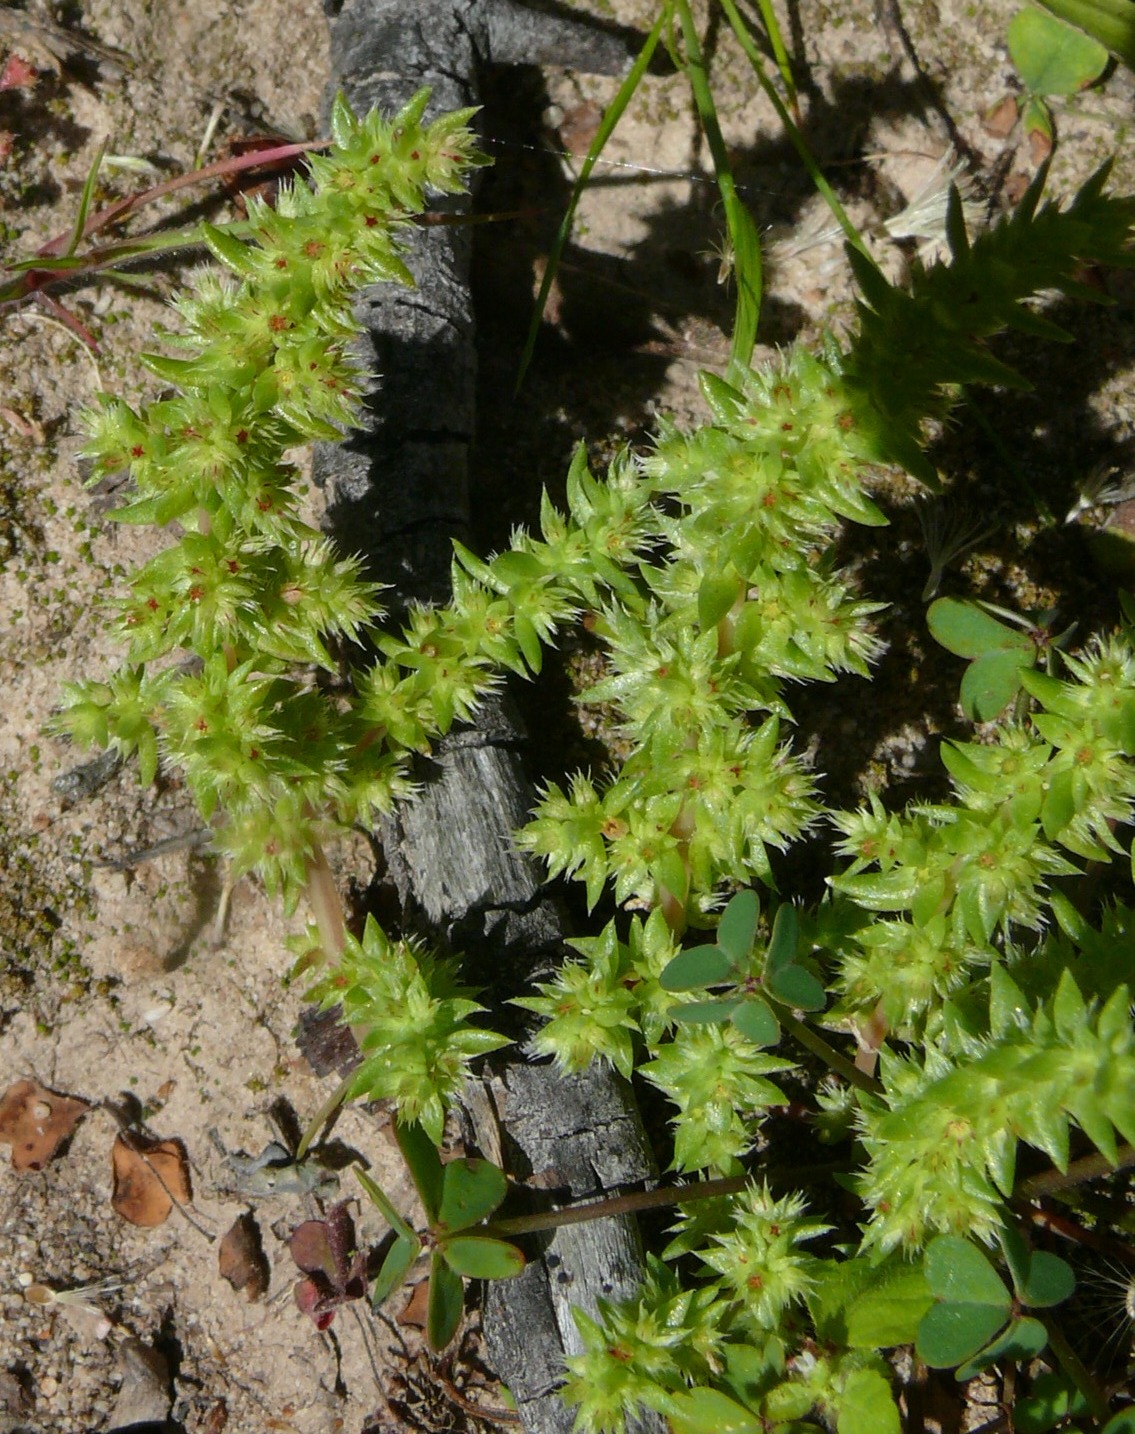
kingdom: Plantae
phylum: Tracheophyta
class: Magnoliopsida
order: Saxifragales
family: Crassulaceae
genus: Crassula
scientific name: Crassula campestris
